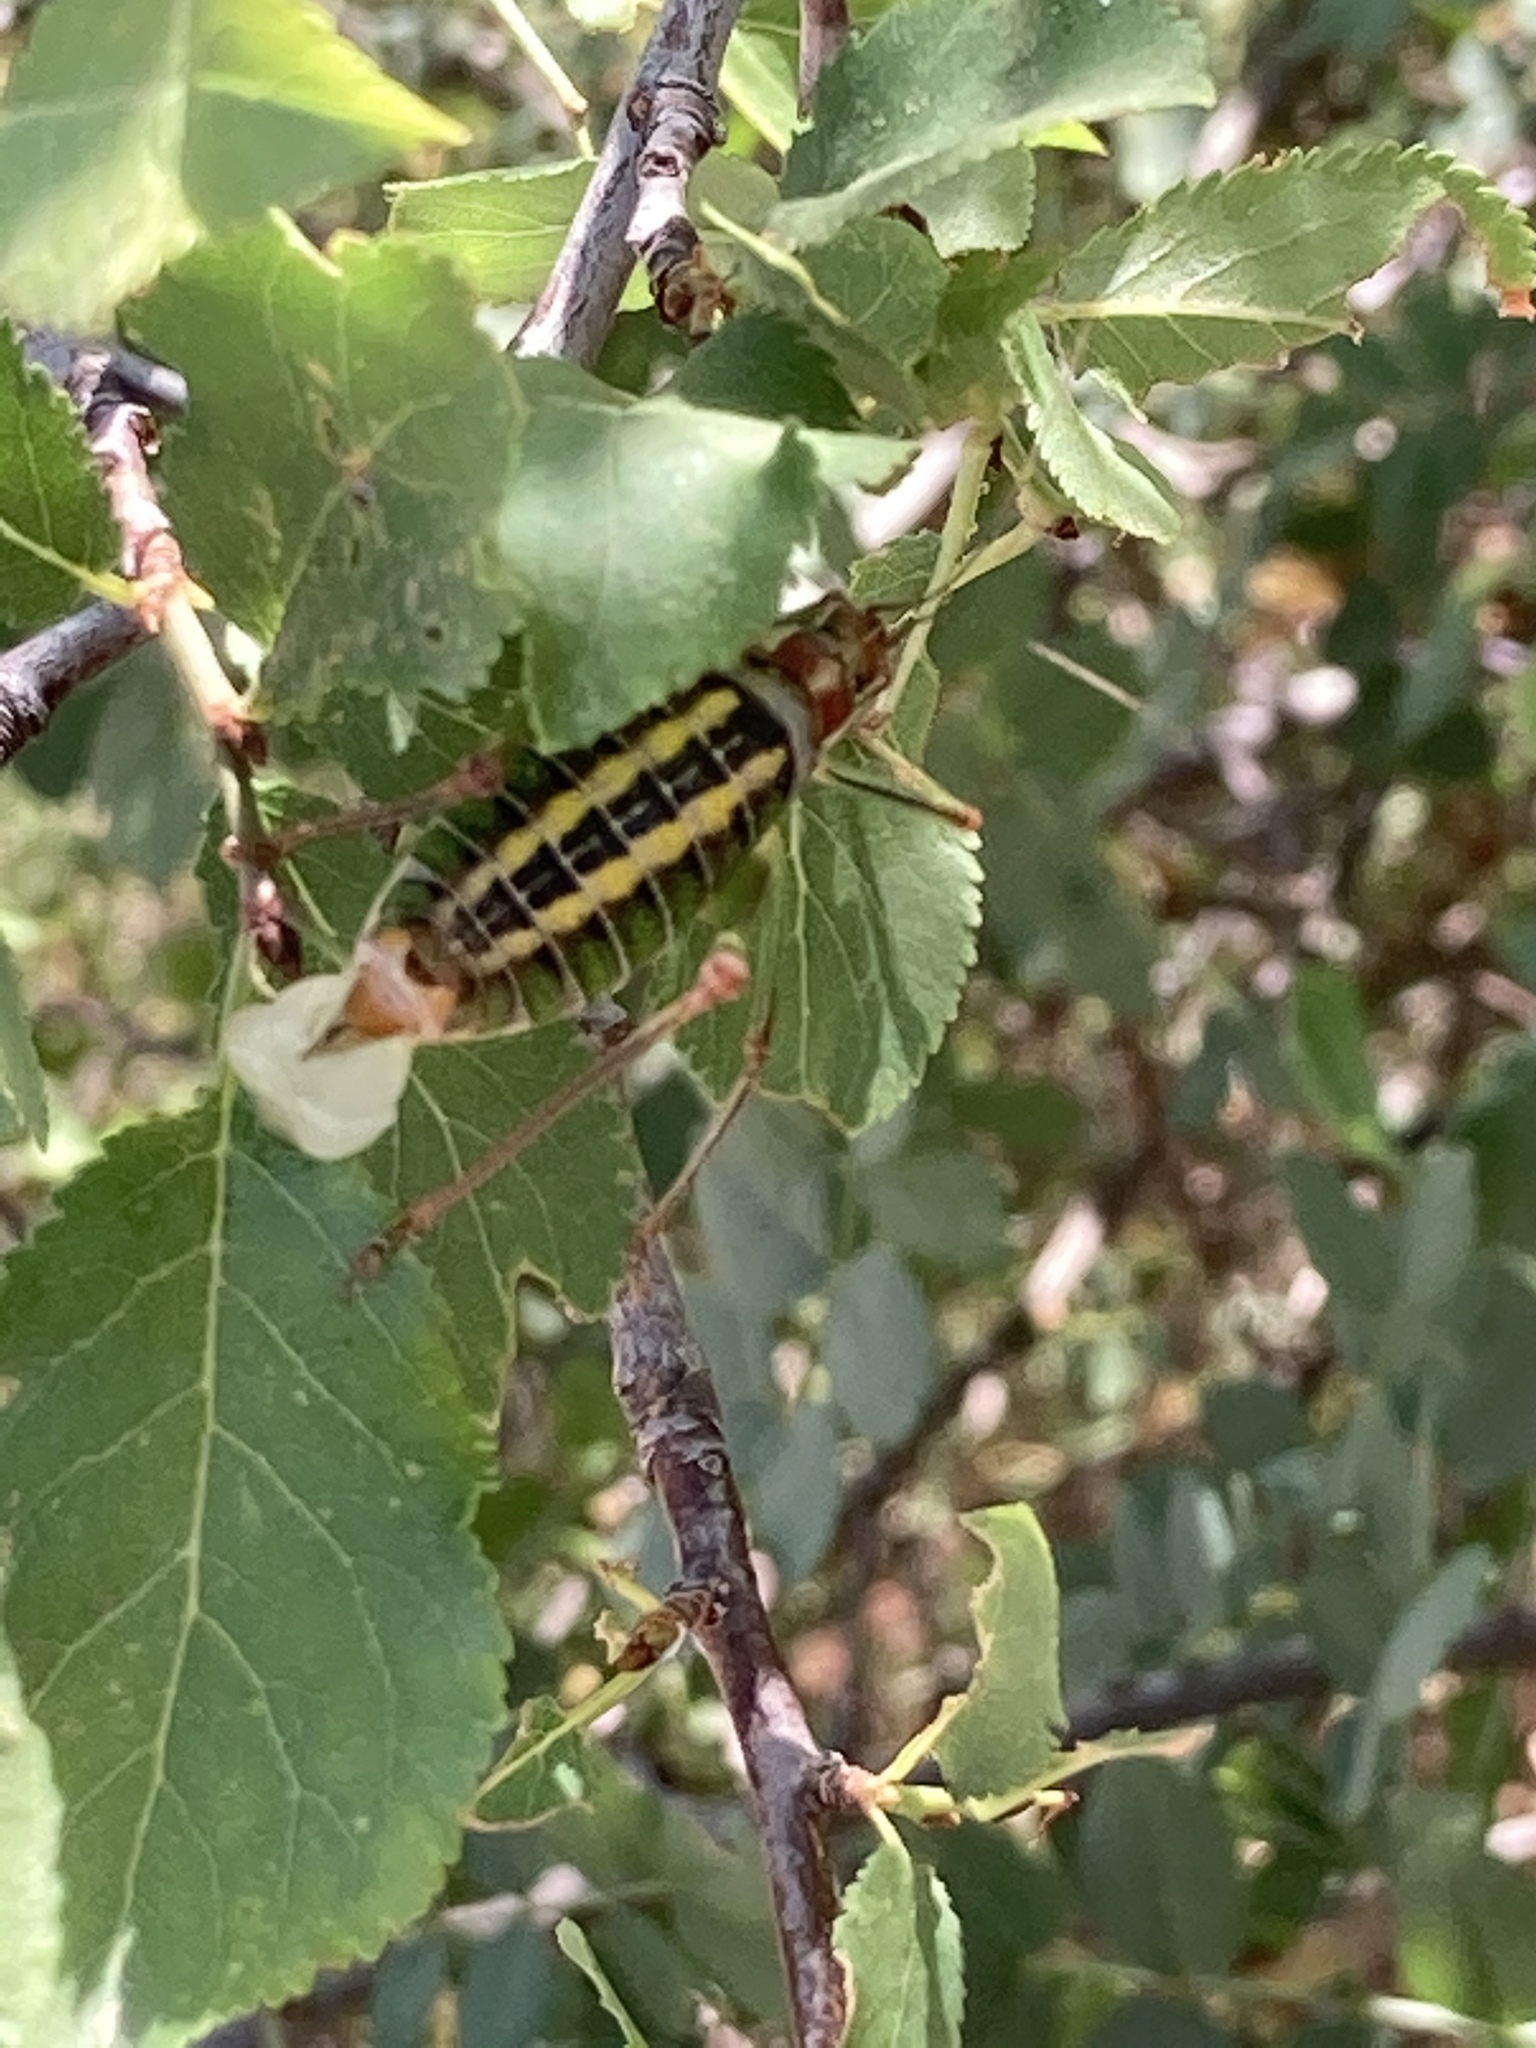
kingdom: Animalia
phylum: Arthropoda
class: Insecta
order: Orthoptera
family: Tettigoniidae
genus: Poecilimon
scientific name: Poecilimon mytilenensis
